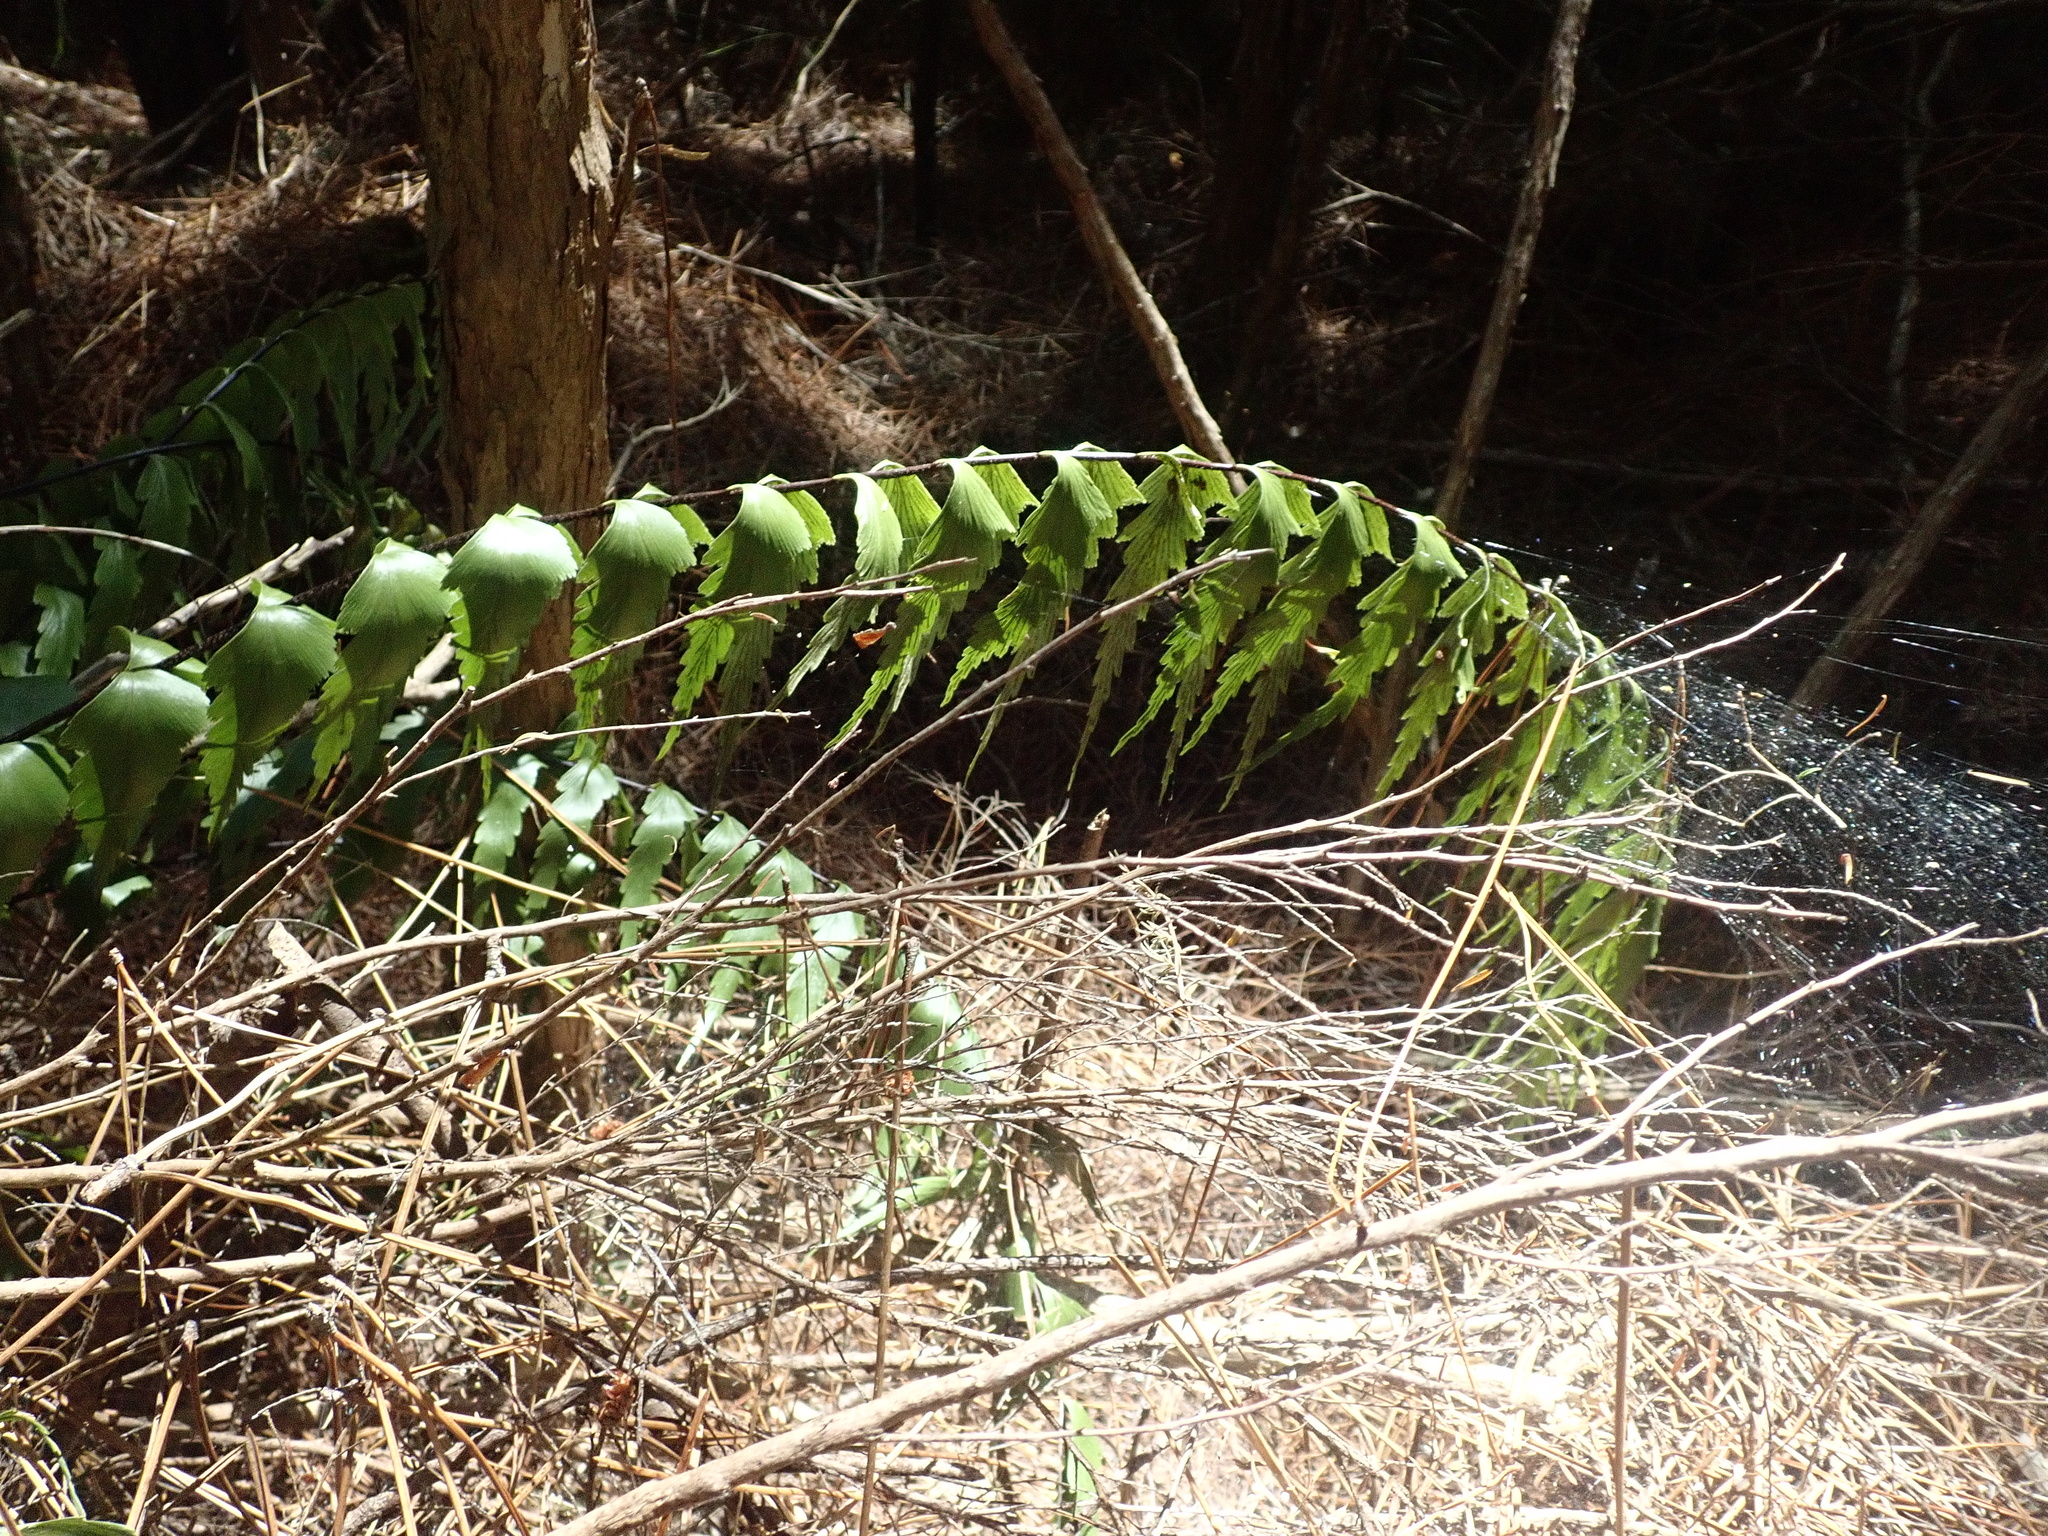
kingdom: Plantae
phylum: Tracheophyta
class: Polypodiopsida
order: Polypodiales
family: Aspleniaceae
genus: Asplenium
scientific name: Asplenium polyodon
